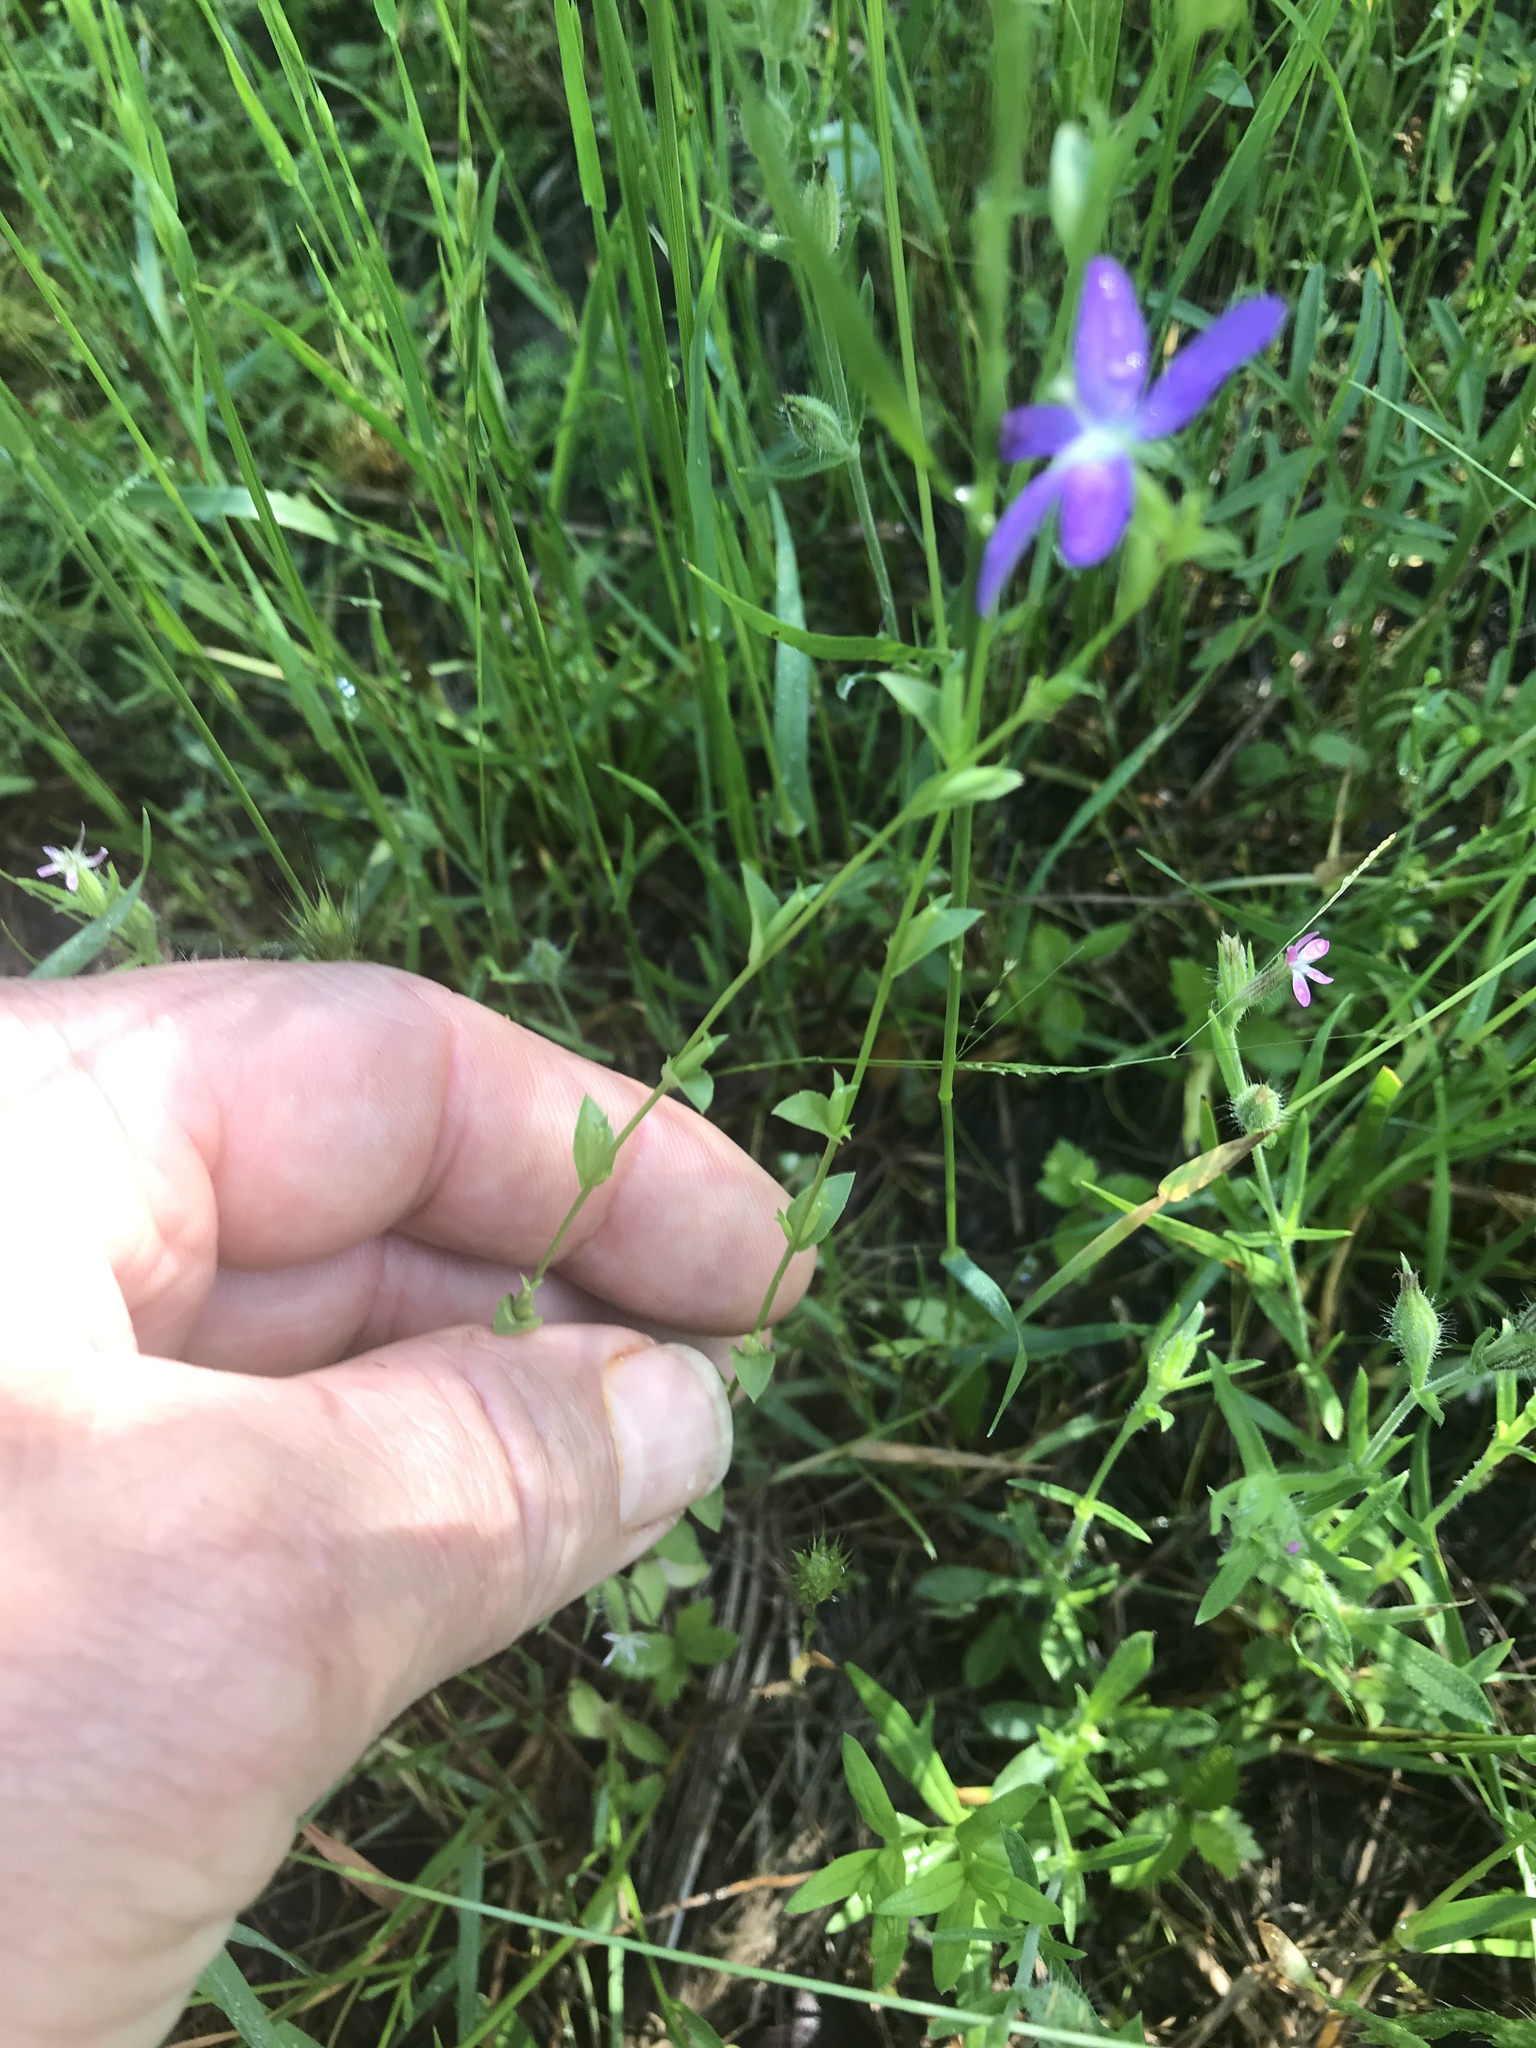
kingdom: Plantae
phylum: Tracheophyta
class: Magnoliopsida
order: Asterales
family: Campanulaceae
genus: Triodanis
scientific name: Triodanis biflora
